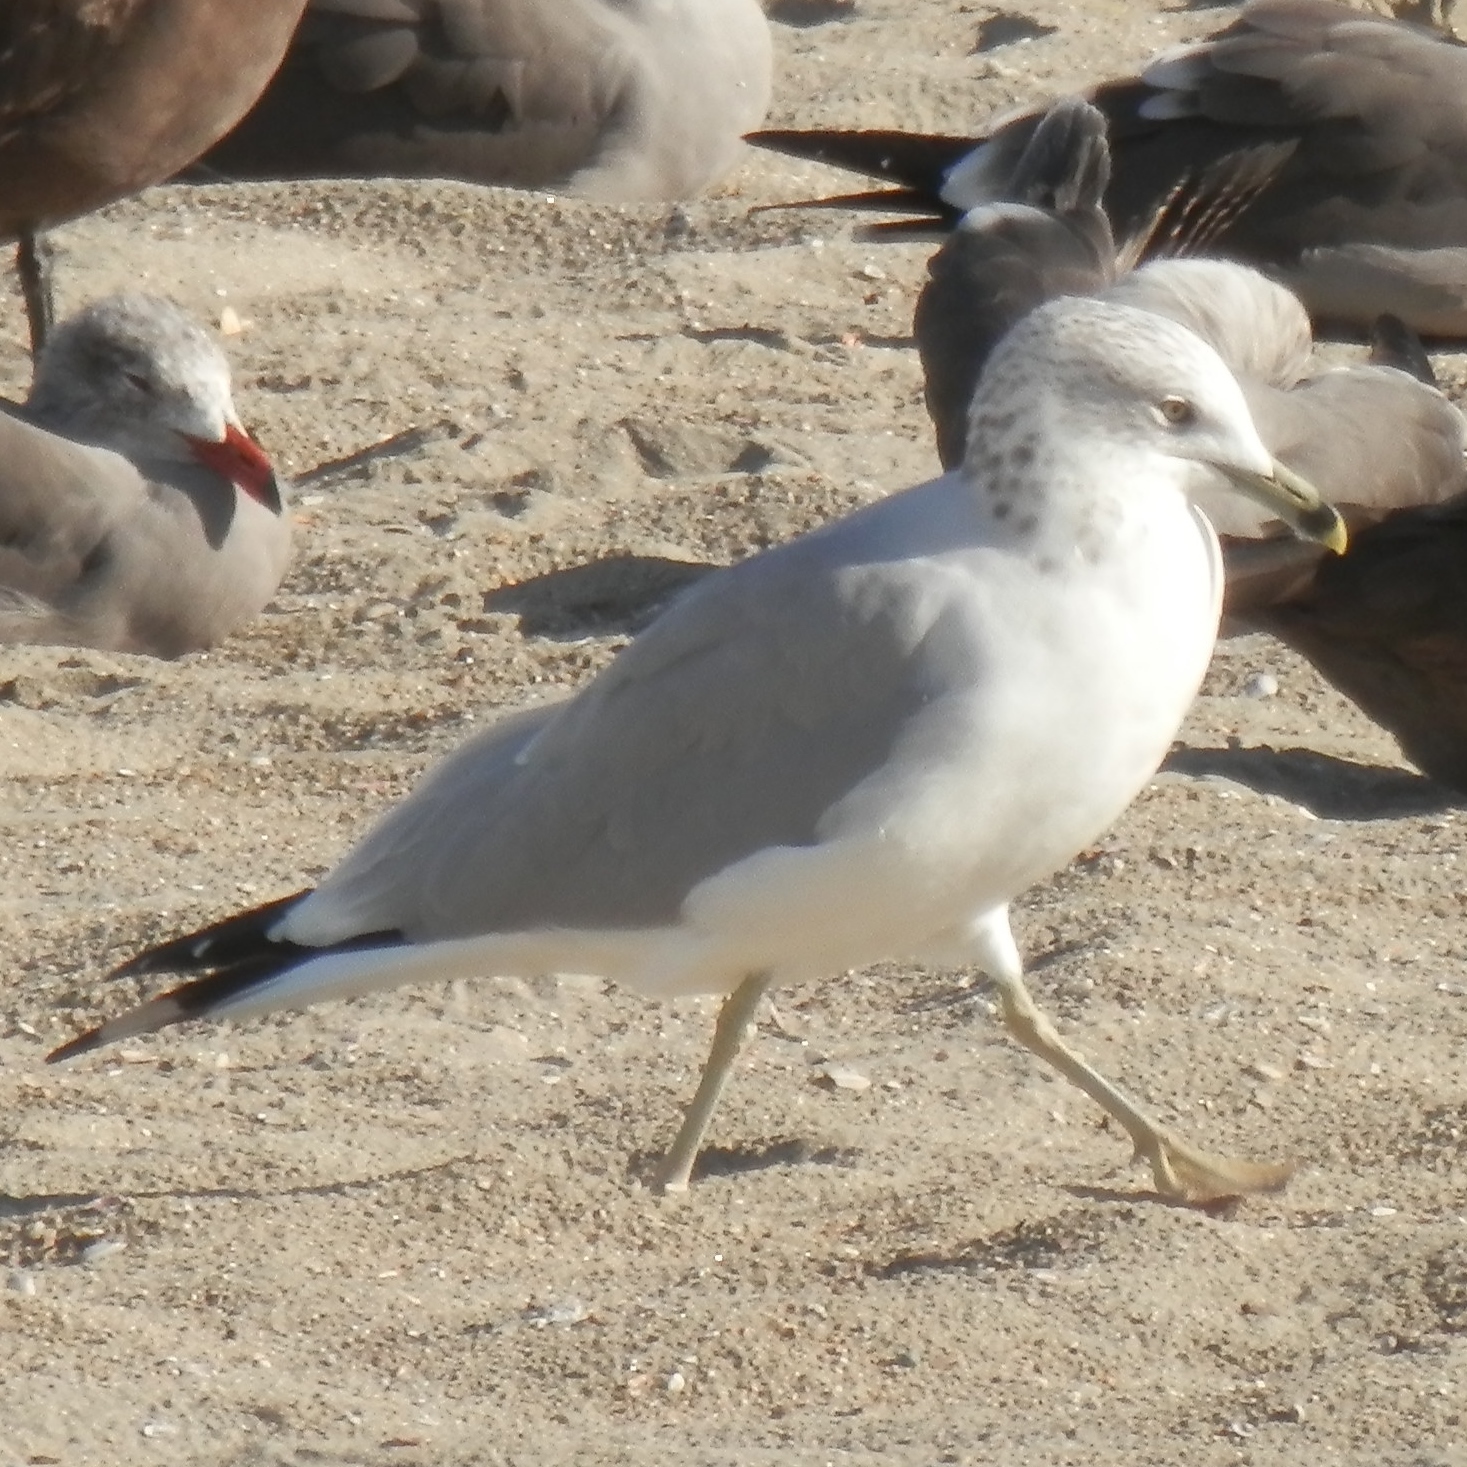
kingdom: Animalia
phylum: Chordata
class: Aves
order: Charadriiformes
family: Laridae
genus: Larus
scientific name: Larus delawarensis
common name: Ring-billed gull
